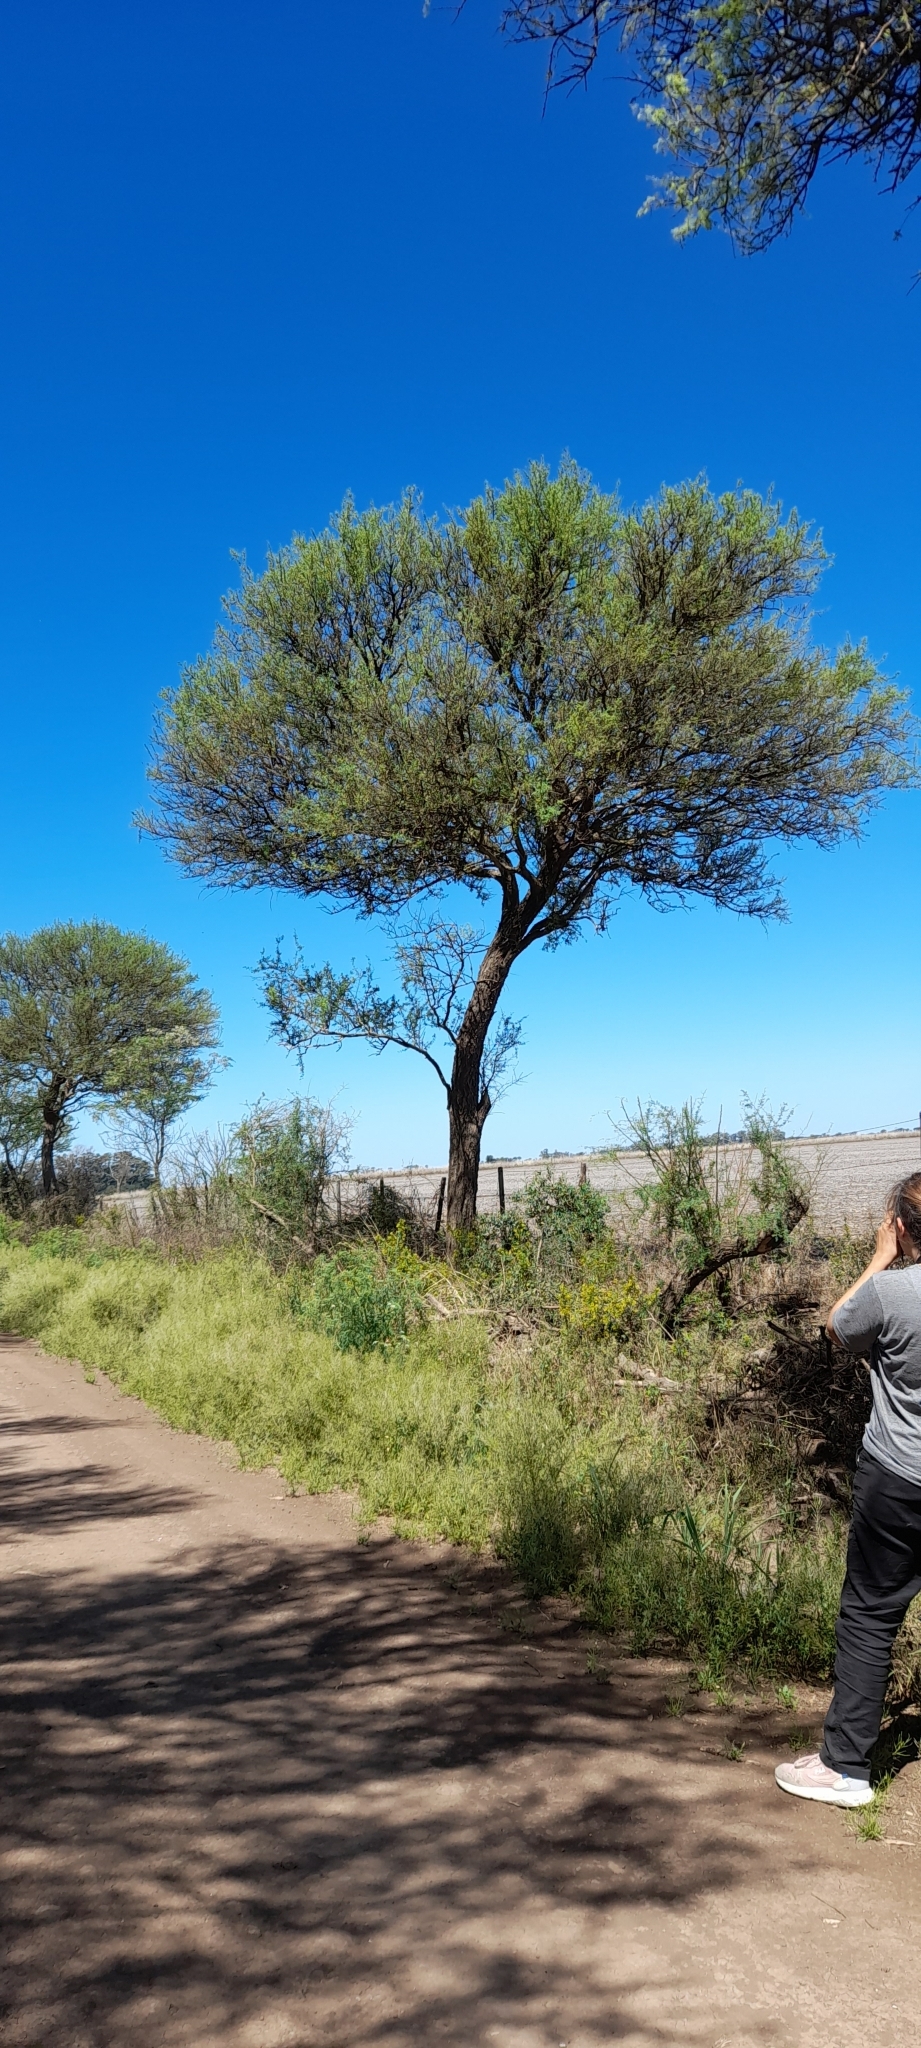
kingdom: Plantae
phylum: Tracheophyta
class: Magnoliopsida
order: Fabales
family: Fabaceae
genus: Geoffroea
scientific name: Geoffroea decorticans
